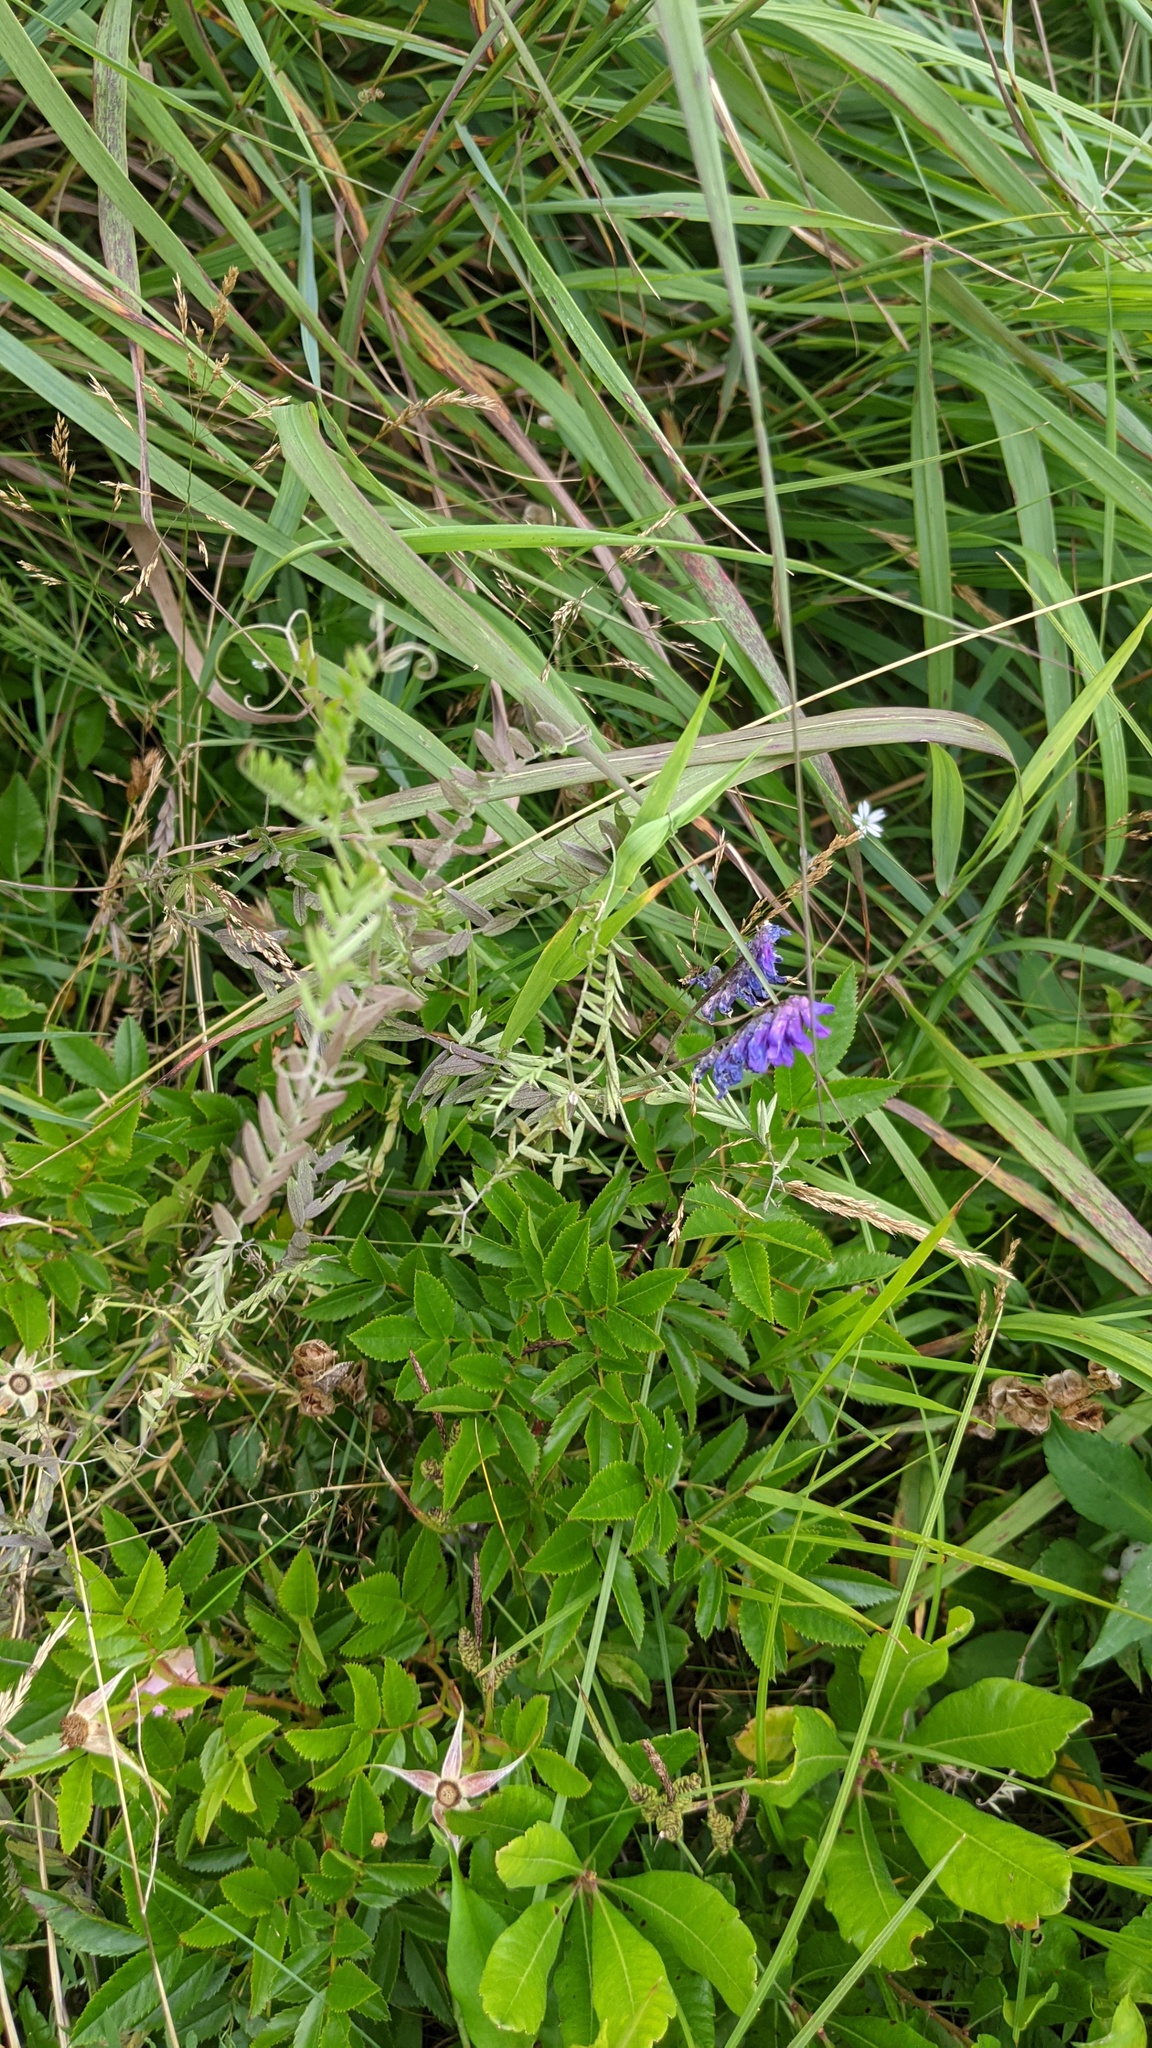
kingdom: Plantae
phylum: Tracheophyta
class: Magnoliopsida
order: Fabales
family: Fabaceae
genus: Vicia
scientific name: Vicia cracca
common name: Bird vetch
